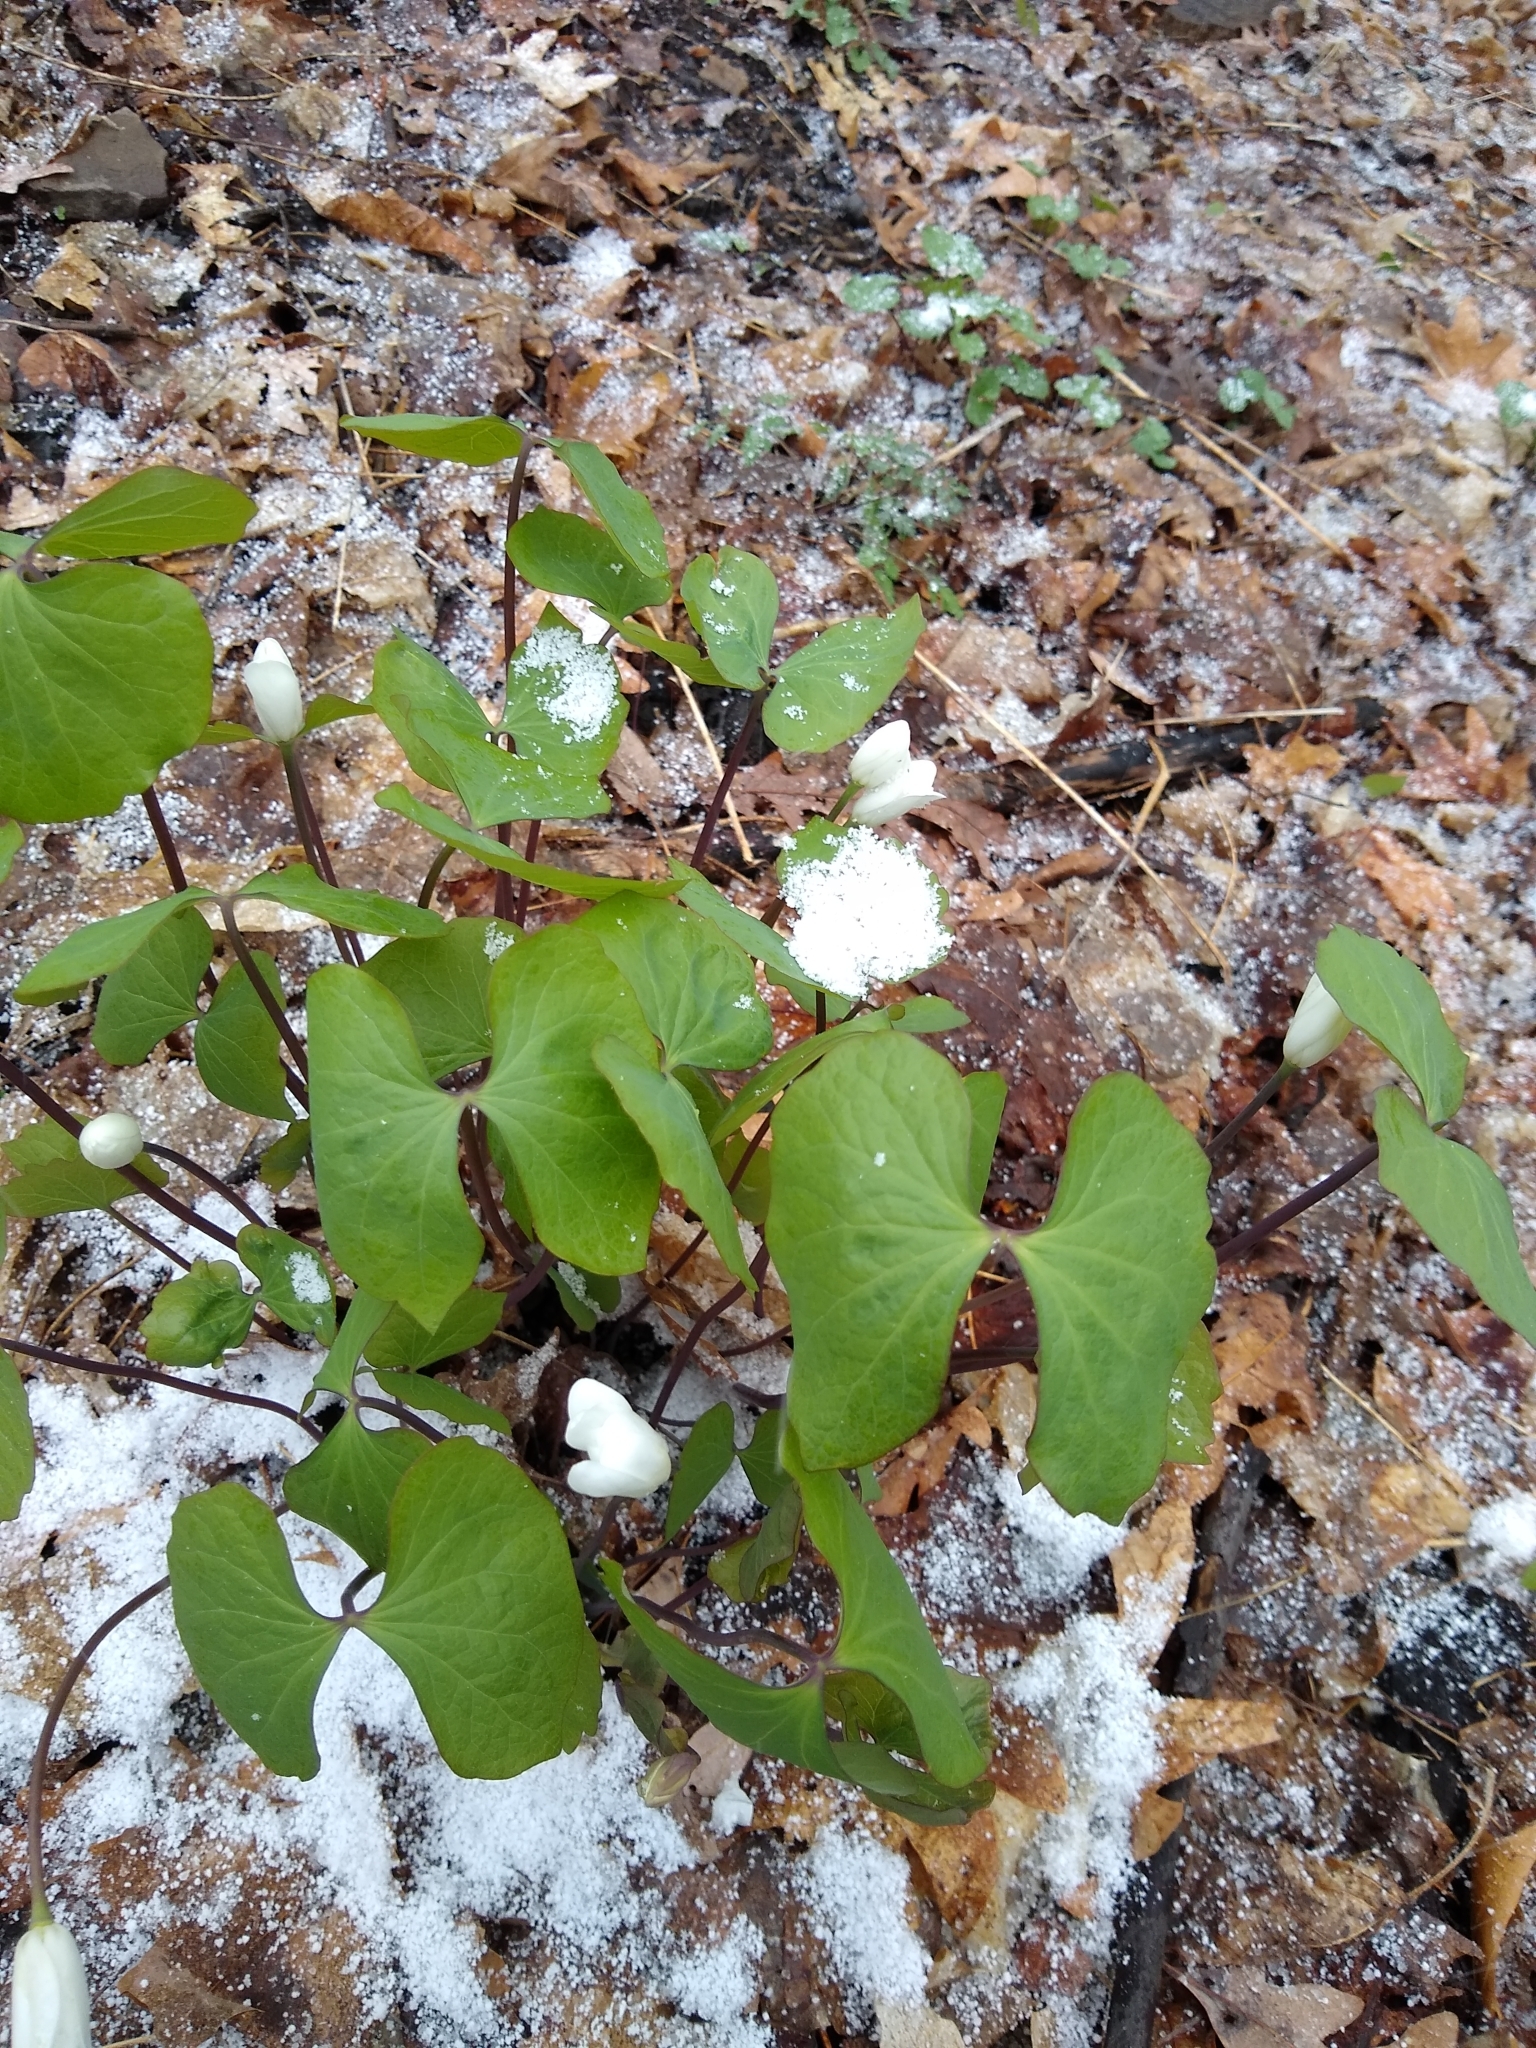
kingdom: Plantae
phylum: Tracheophyta
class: Magnoliopsida
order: Ranunculales
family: Berberidaceae
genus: Jeffersonia
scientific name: Jeffersonia diphylla
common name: Rheumatism-root
